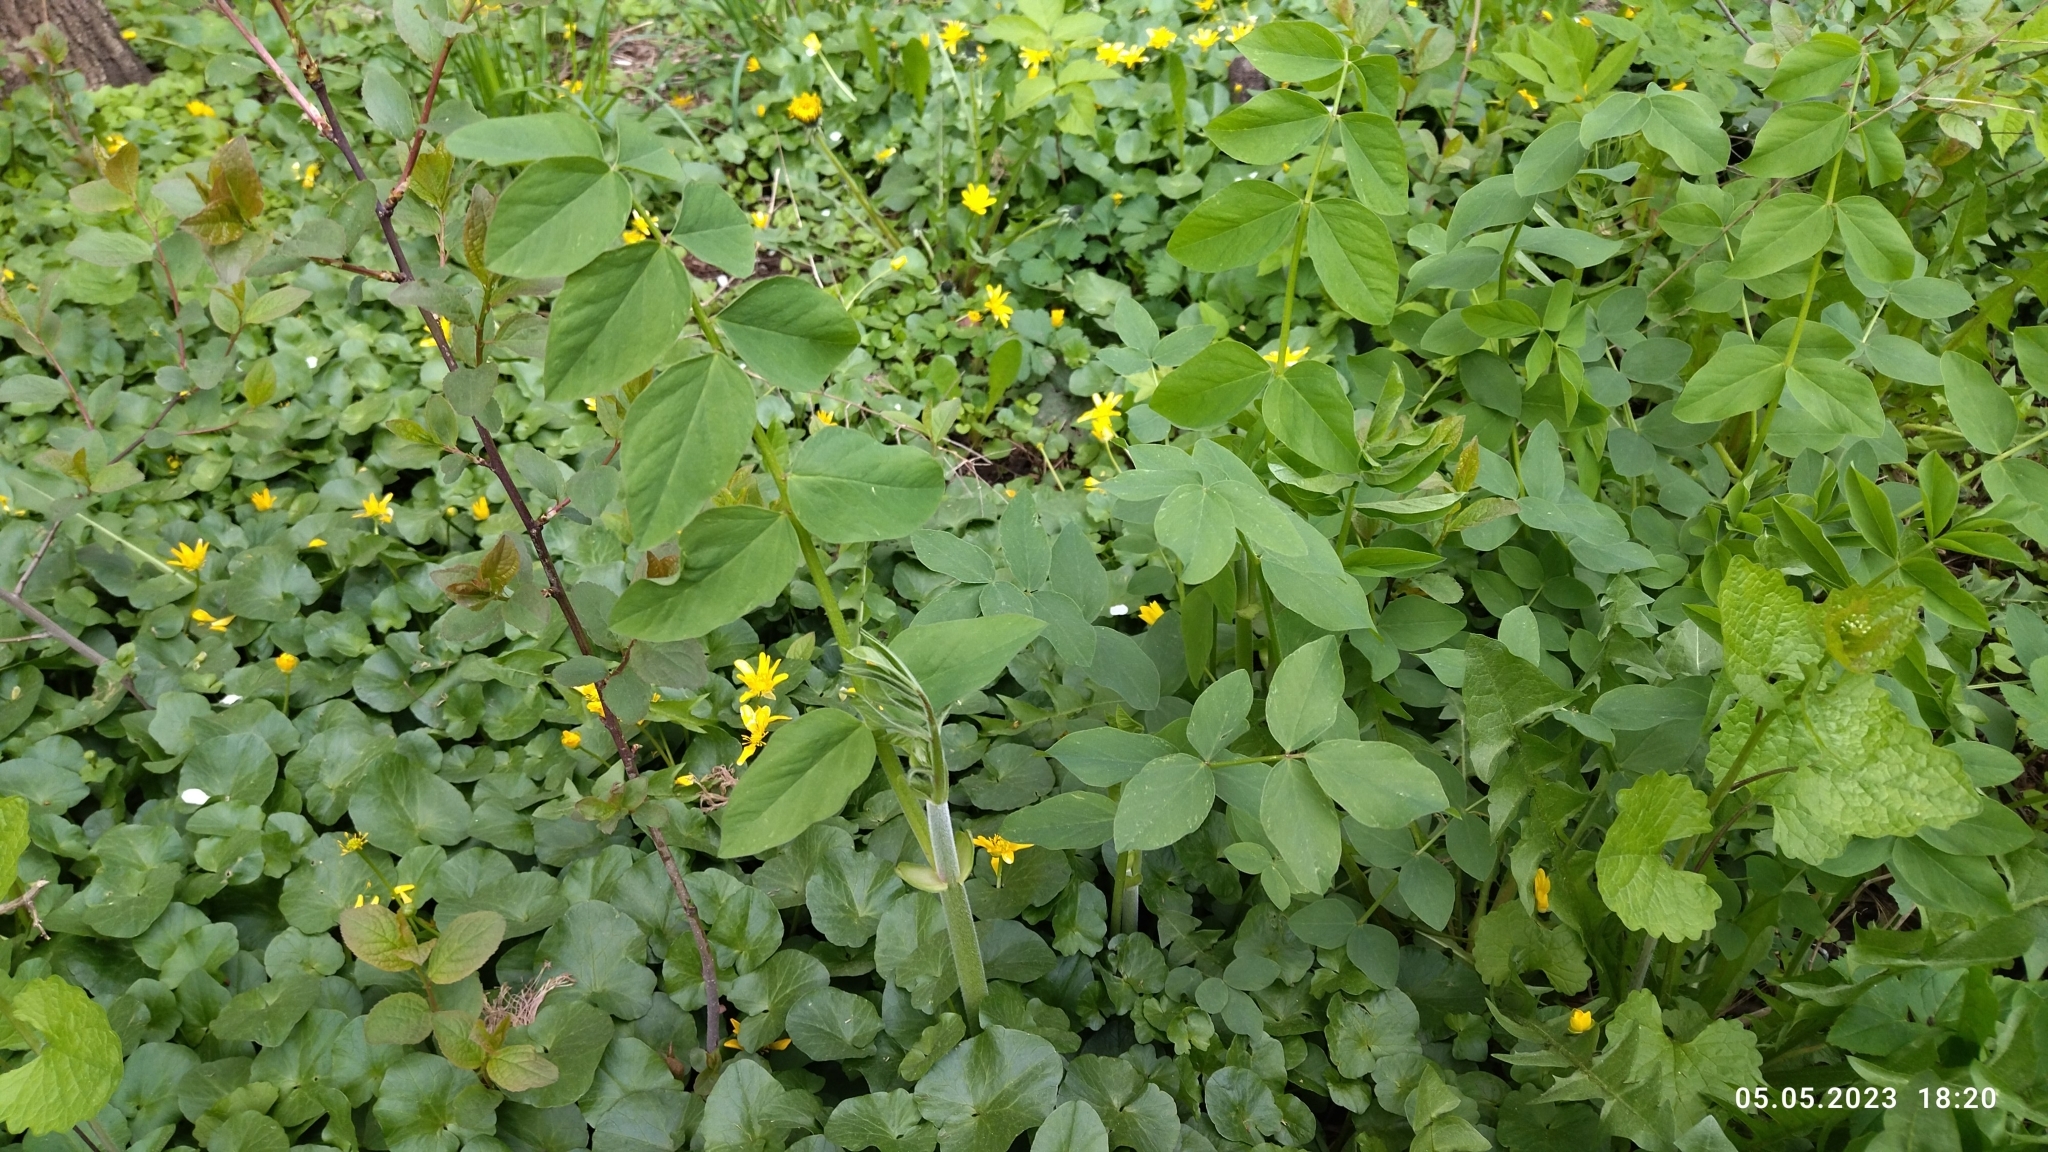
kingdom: Plantae
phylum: Tracheophyta
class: Magnoliopsida
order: Fabales
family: Fabaceae
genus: Galega
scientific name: Galega orientalis
